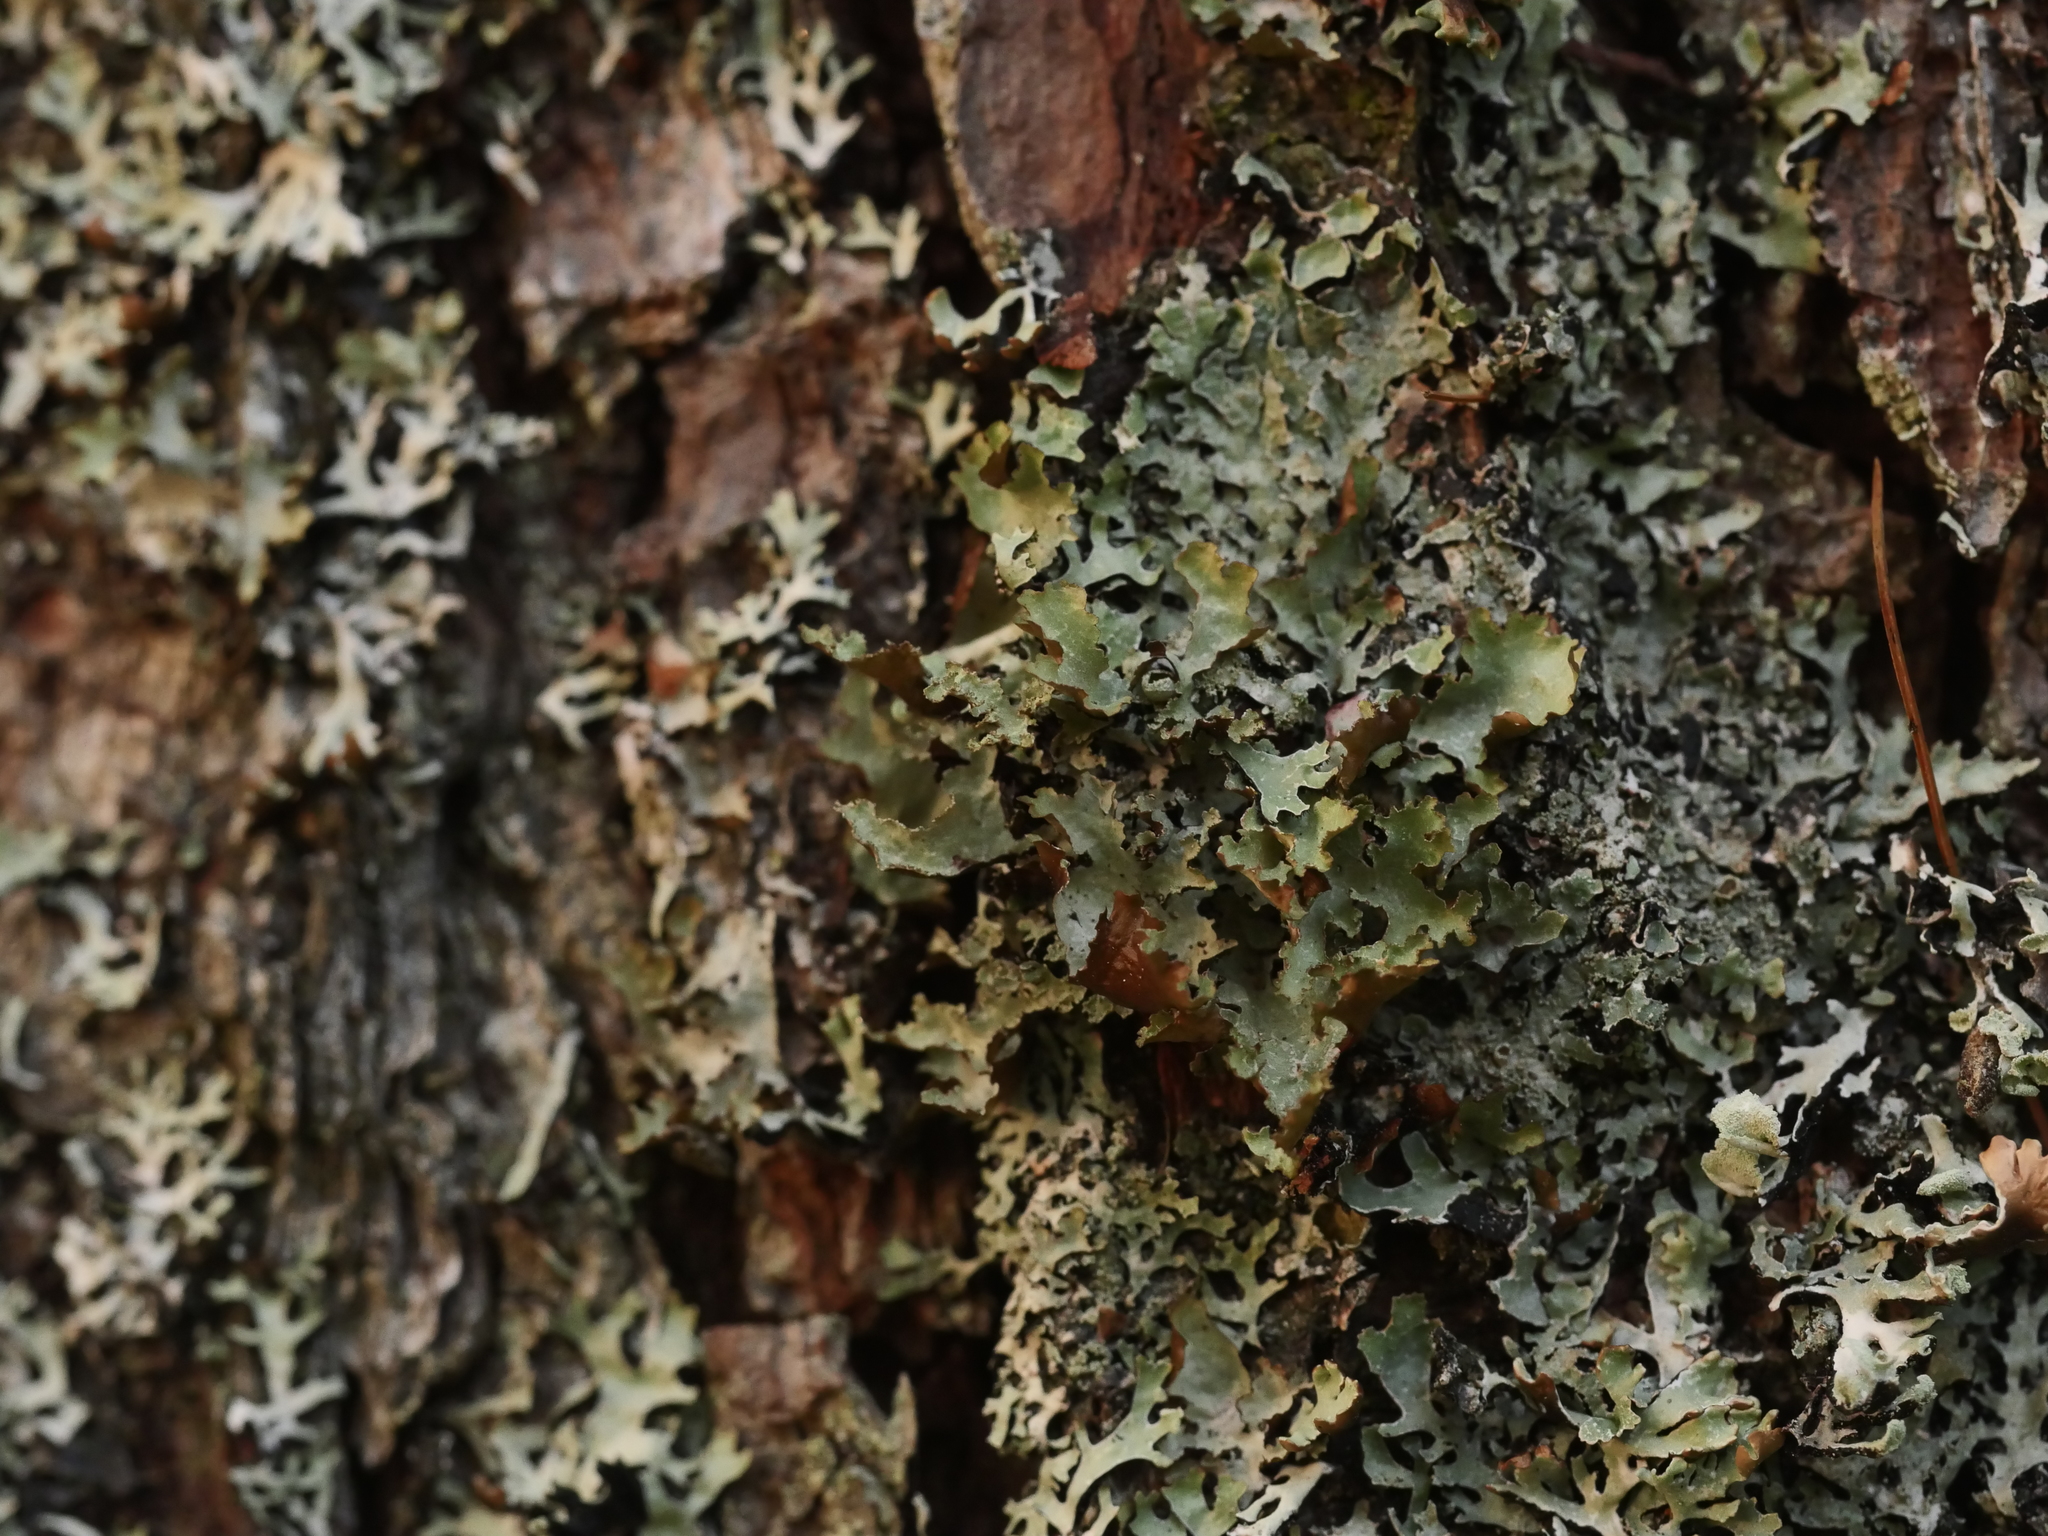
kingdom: Fungi
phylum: Ascomycota
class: Lecanoromycetes
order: Lecanorales
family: Parmeliaceae
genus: Platismatia
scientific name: Platismatia glauca
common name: Varied rag lichen
